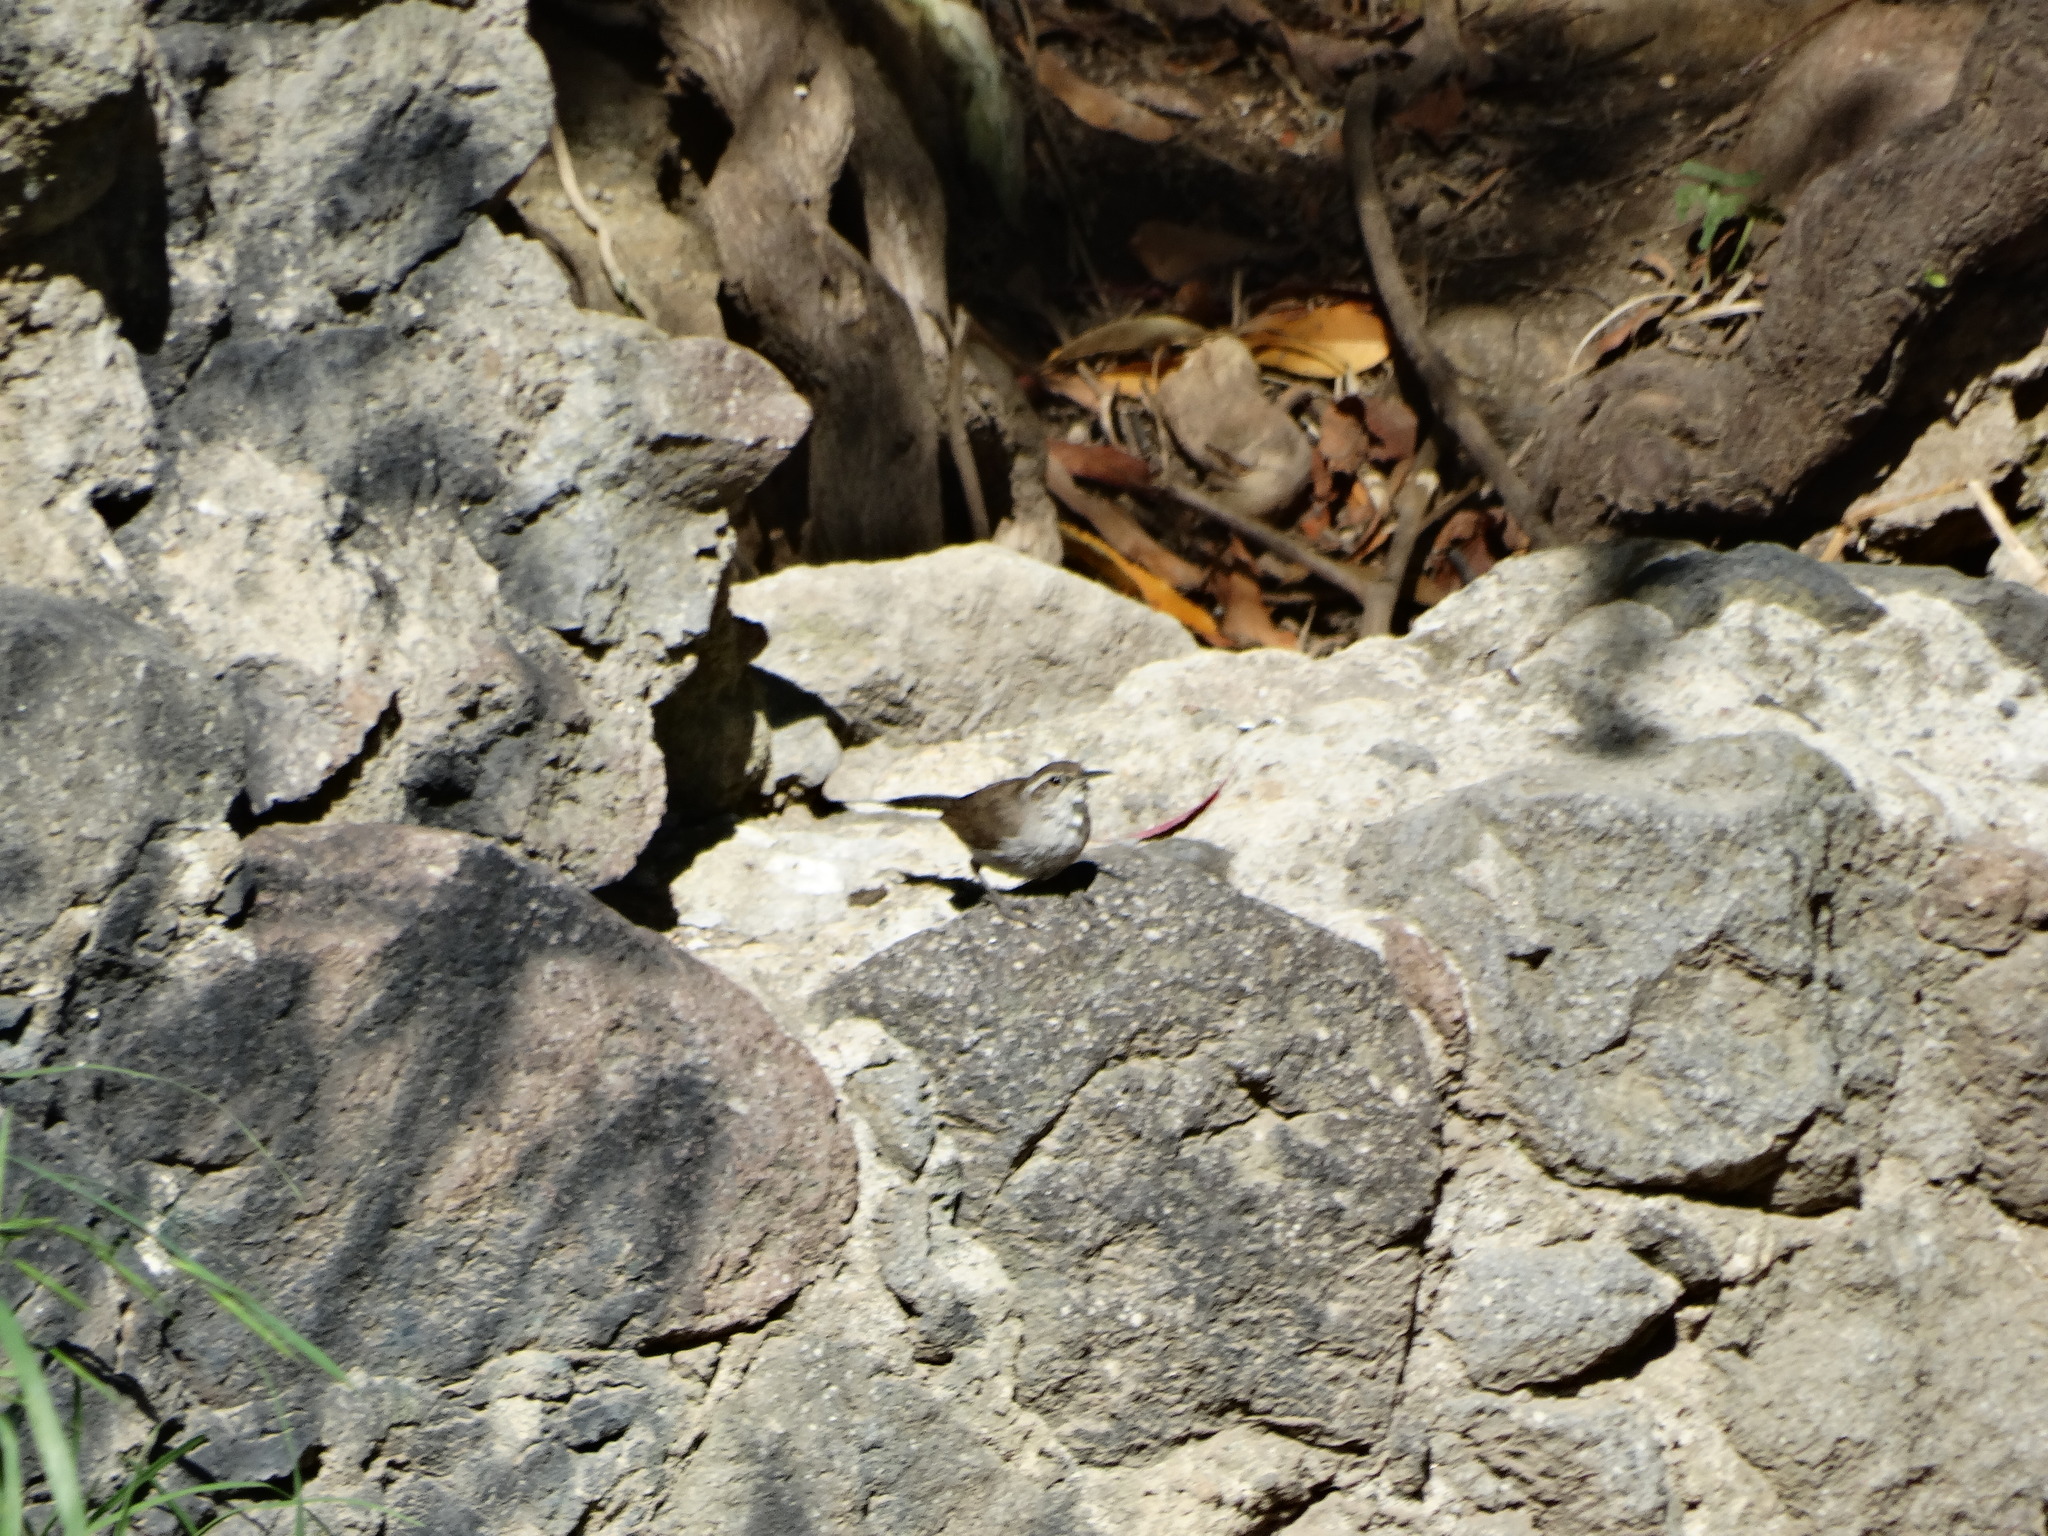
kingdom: Animalia
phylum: Chordata
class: Aves
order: Passeriformes
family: Troglodytidae
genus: Thryomanes
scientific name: Thryomanes bewickii
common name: Bewick's wren
